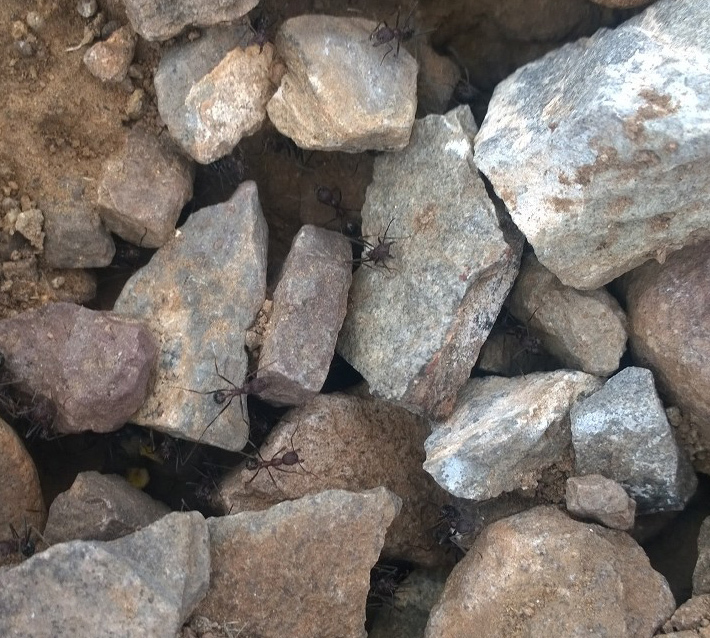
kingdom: Animalia
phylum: Arthropoda
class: Insecta
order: Hymenoptera
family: Formicidae
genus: Novomessor
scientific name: Novomessor cockerelli
